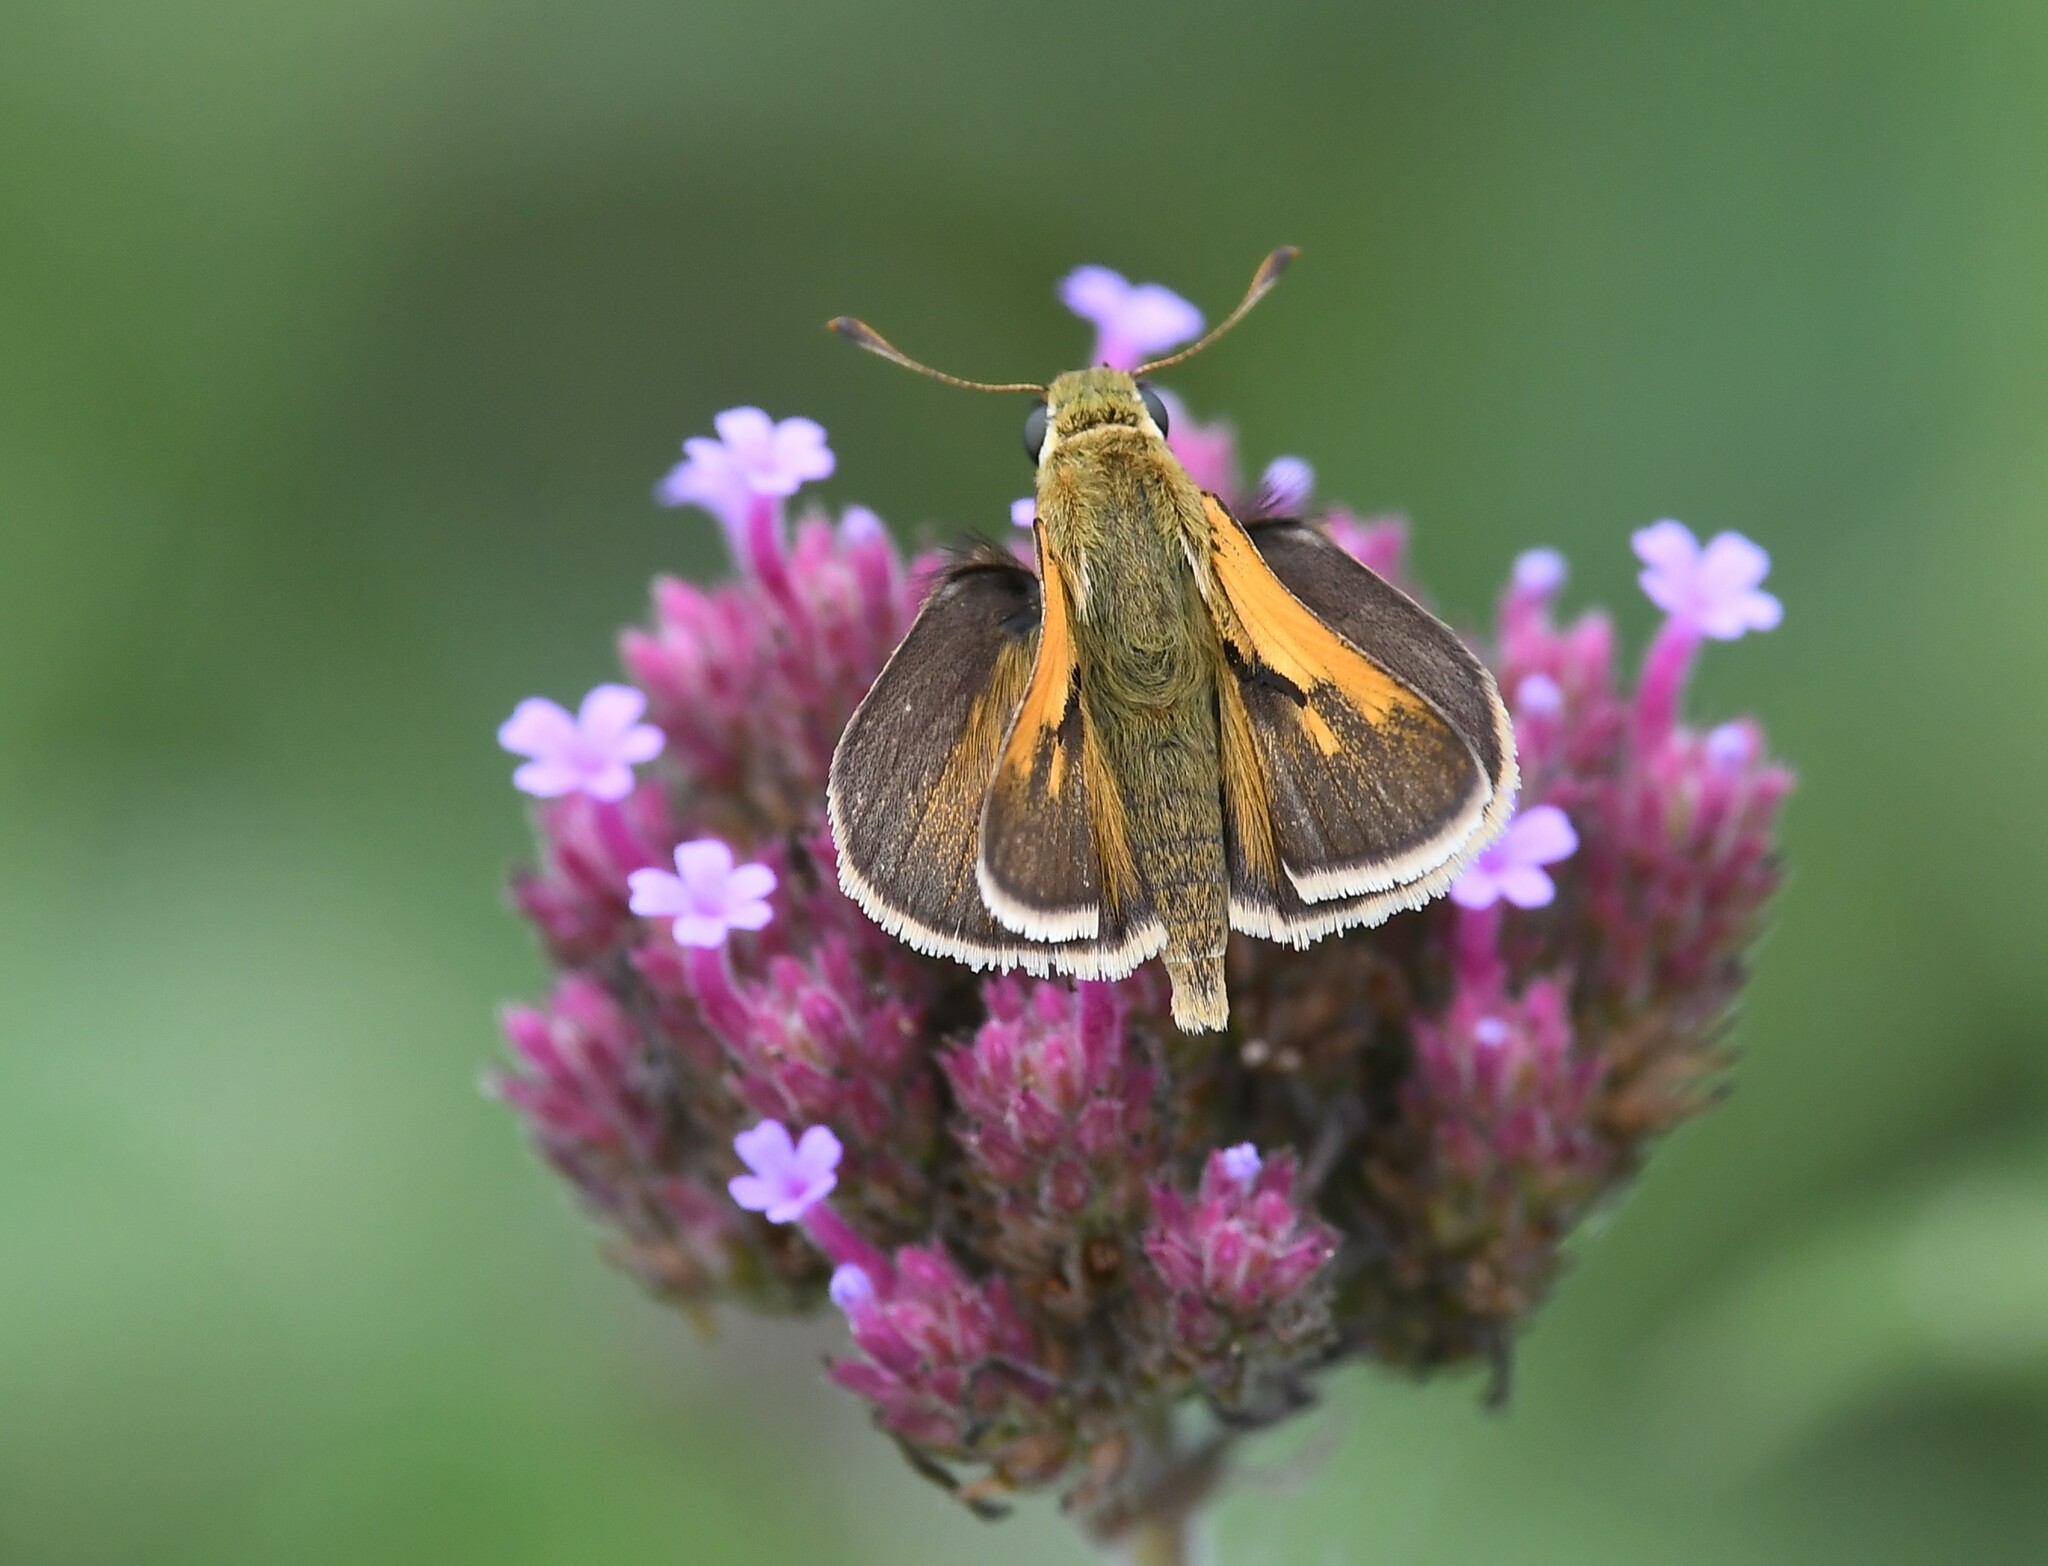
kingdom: Animalia
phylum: Arthropoda
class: Insecta
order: Lepidoptera
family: Hesperiidae
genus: Polites
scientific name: Polites themistocles
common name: Tawny-edged skipper
